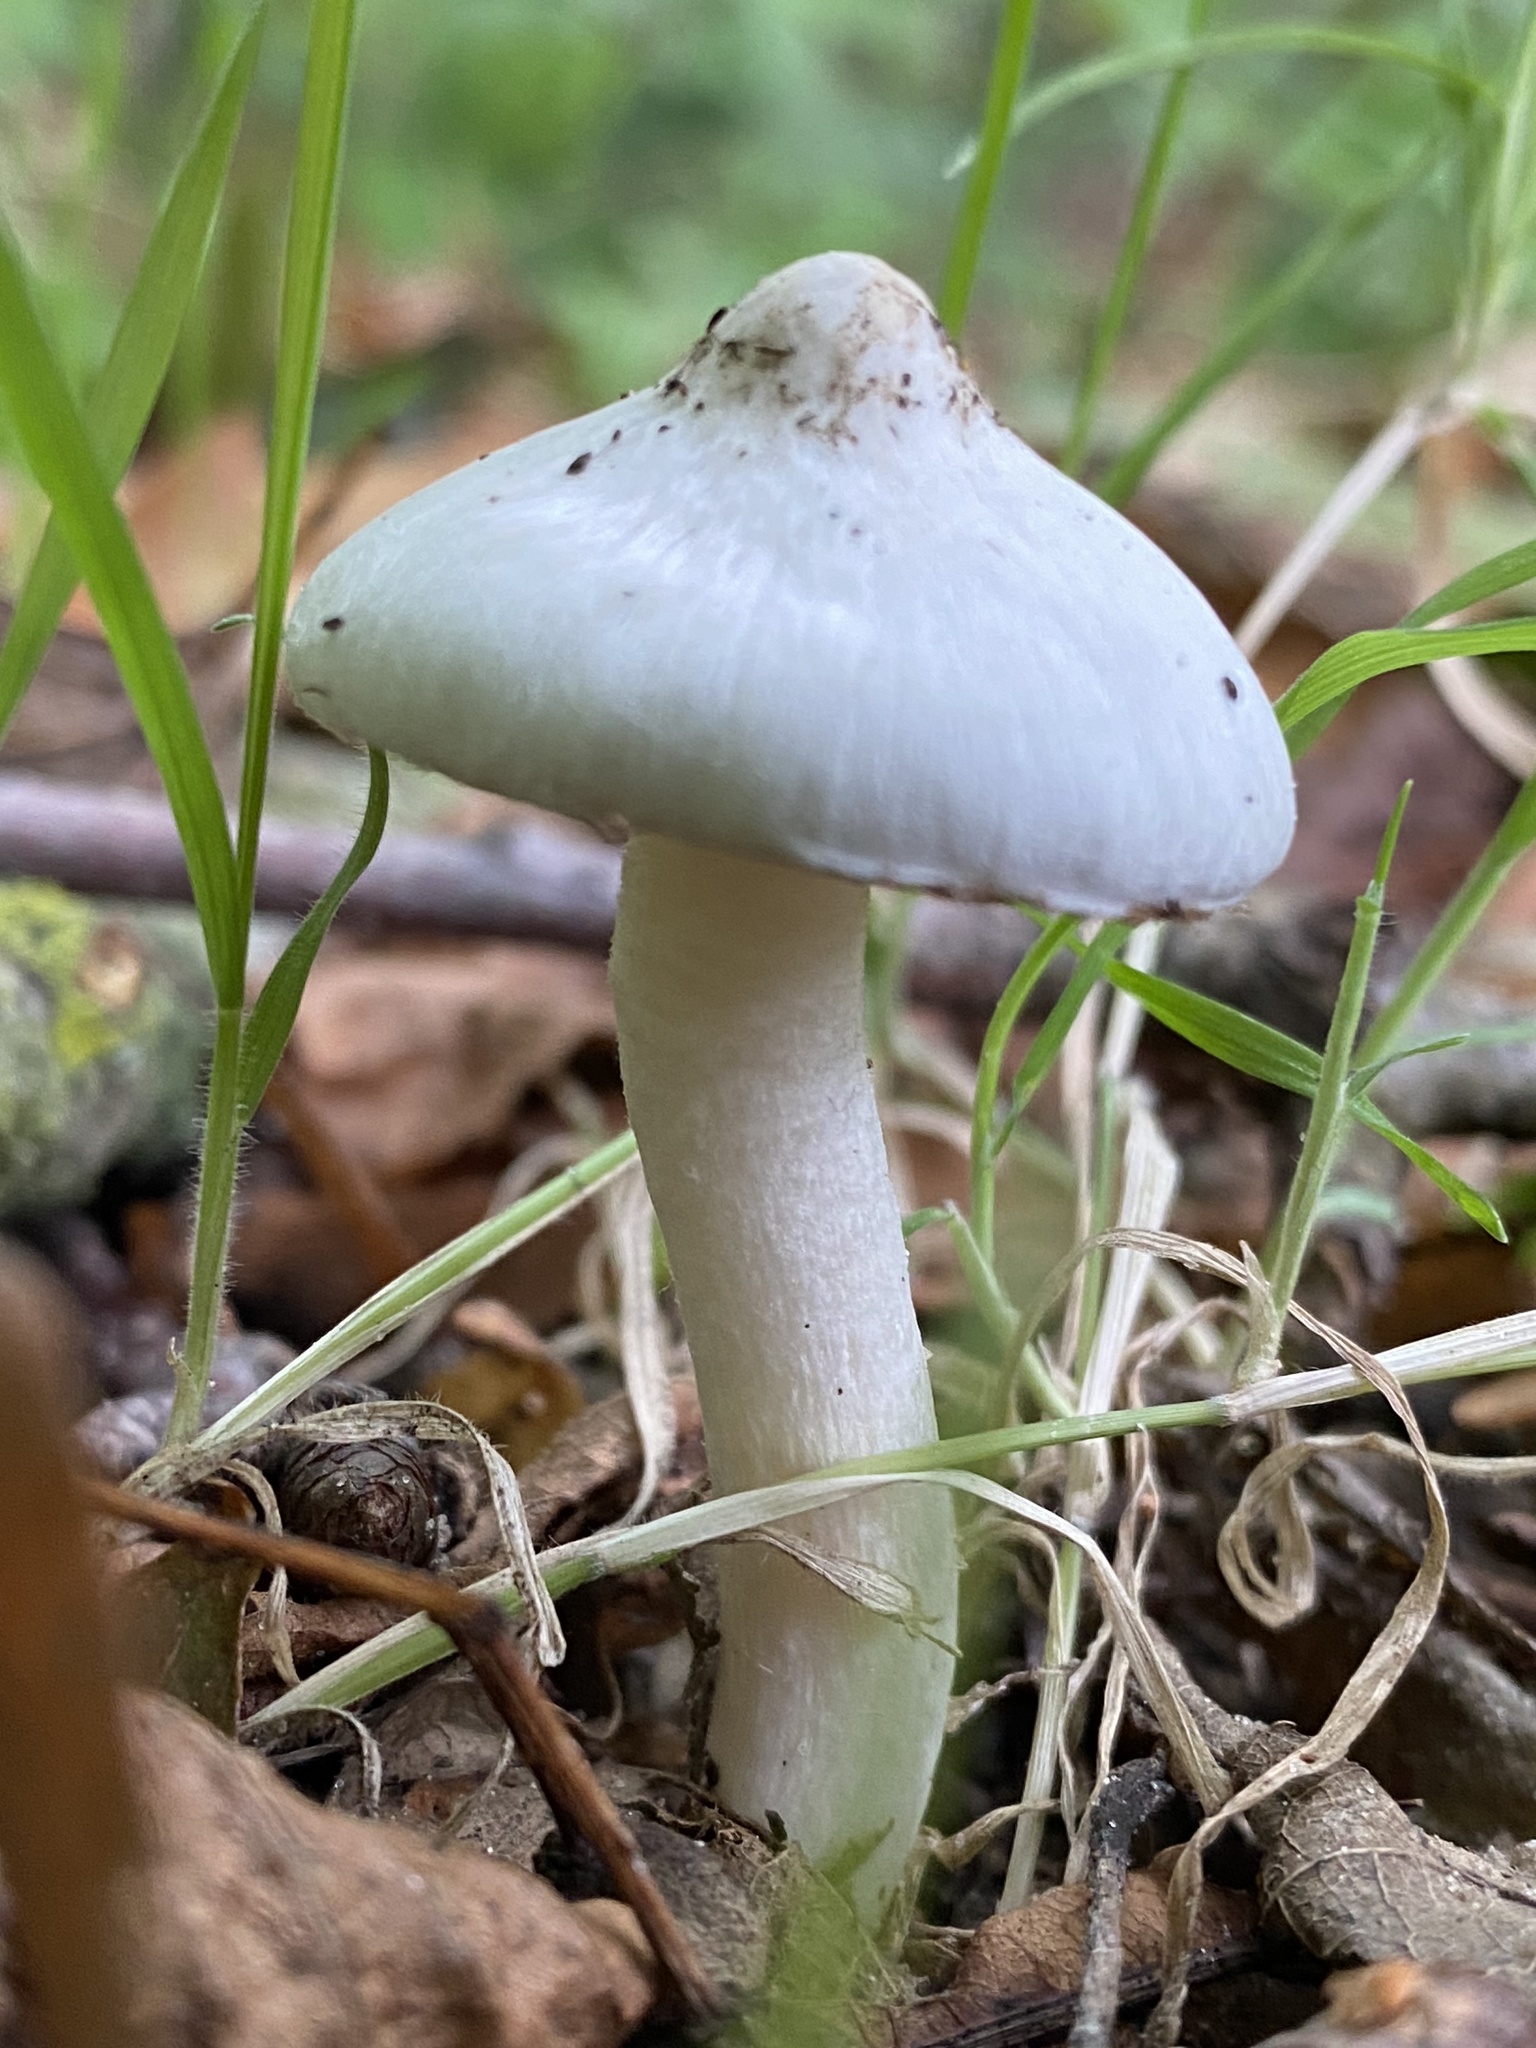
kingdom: Fungi
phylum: Basidiomycota
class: Agaricomycetes
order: Agaricales
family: Inocybaceae
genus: Inocybe
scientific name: Inocybe geophylla
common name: White fibrecap
